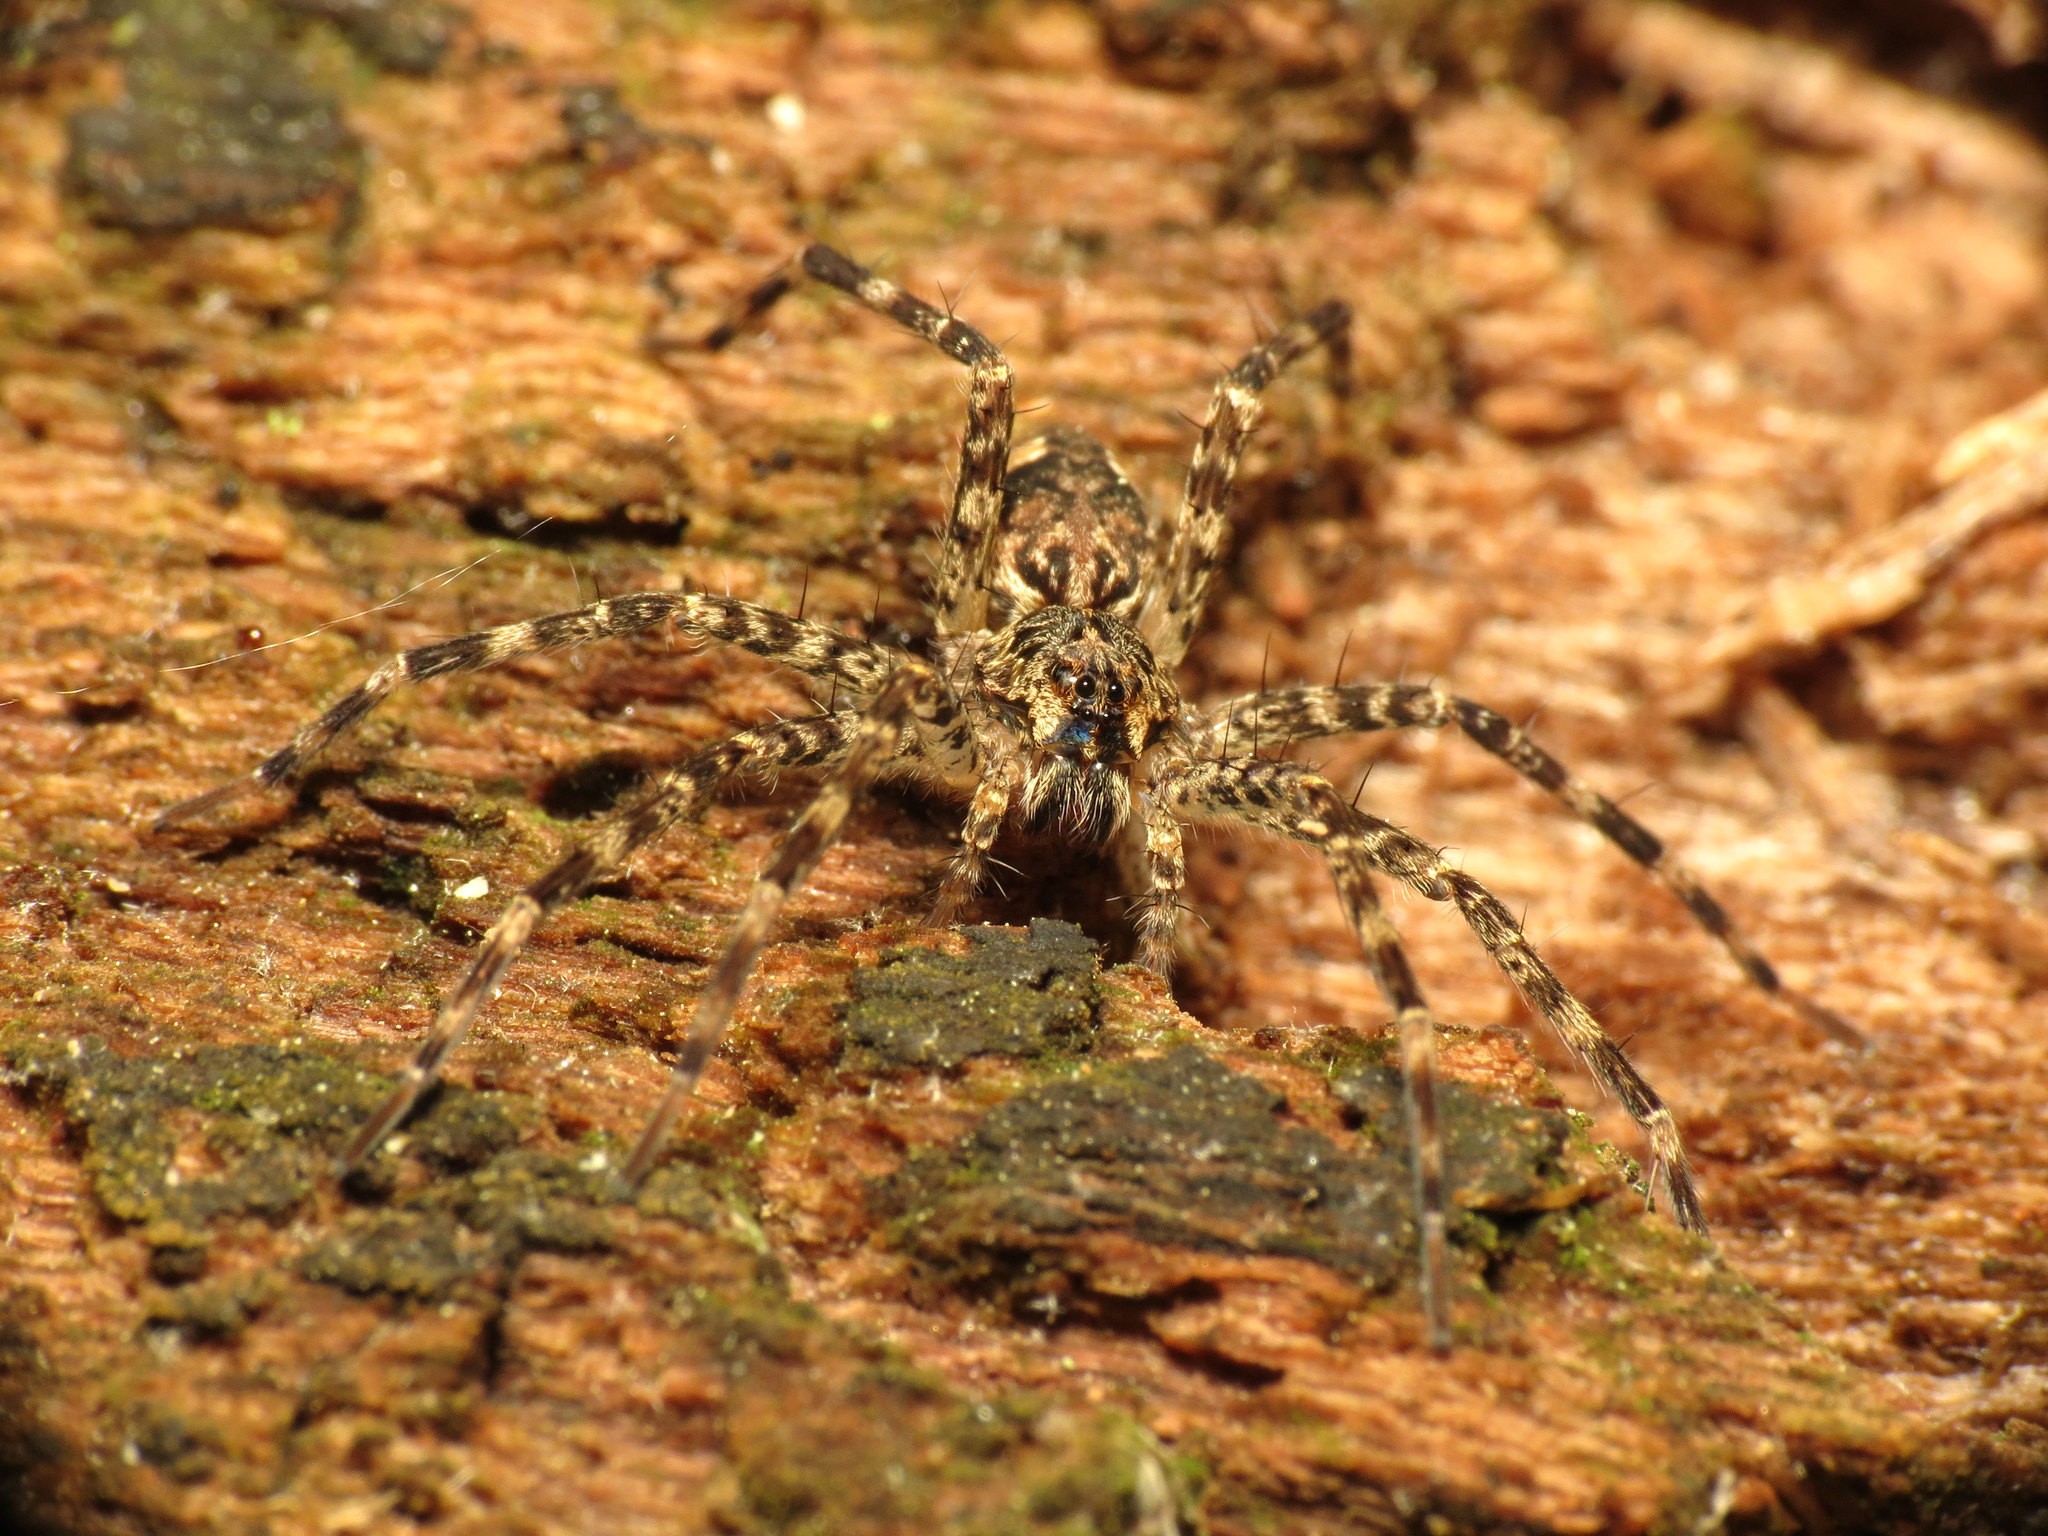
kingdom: Animalia
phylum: Arthropoda
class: Arachnida
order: Araneae
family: Pisauridae
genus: Dolomedes
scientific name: Dolomedes tenebrosus
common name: Dark fishing spider
